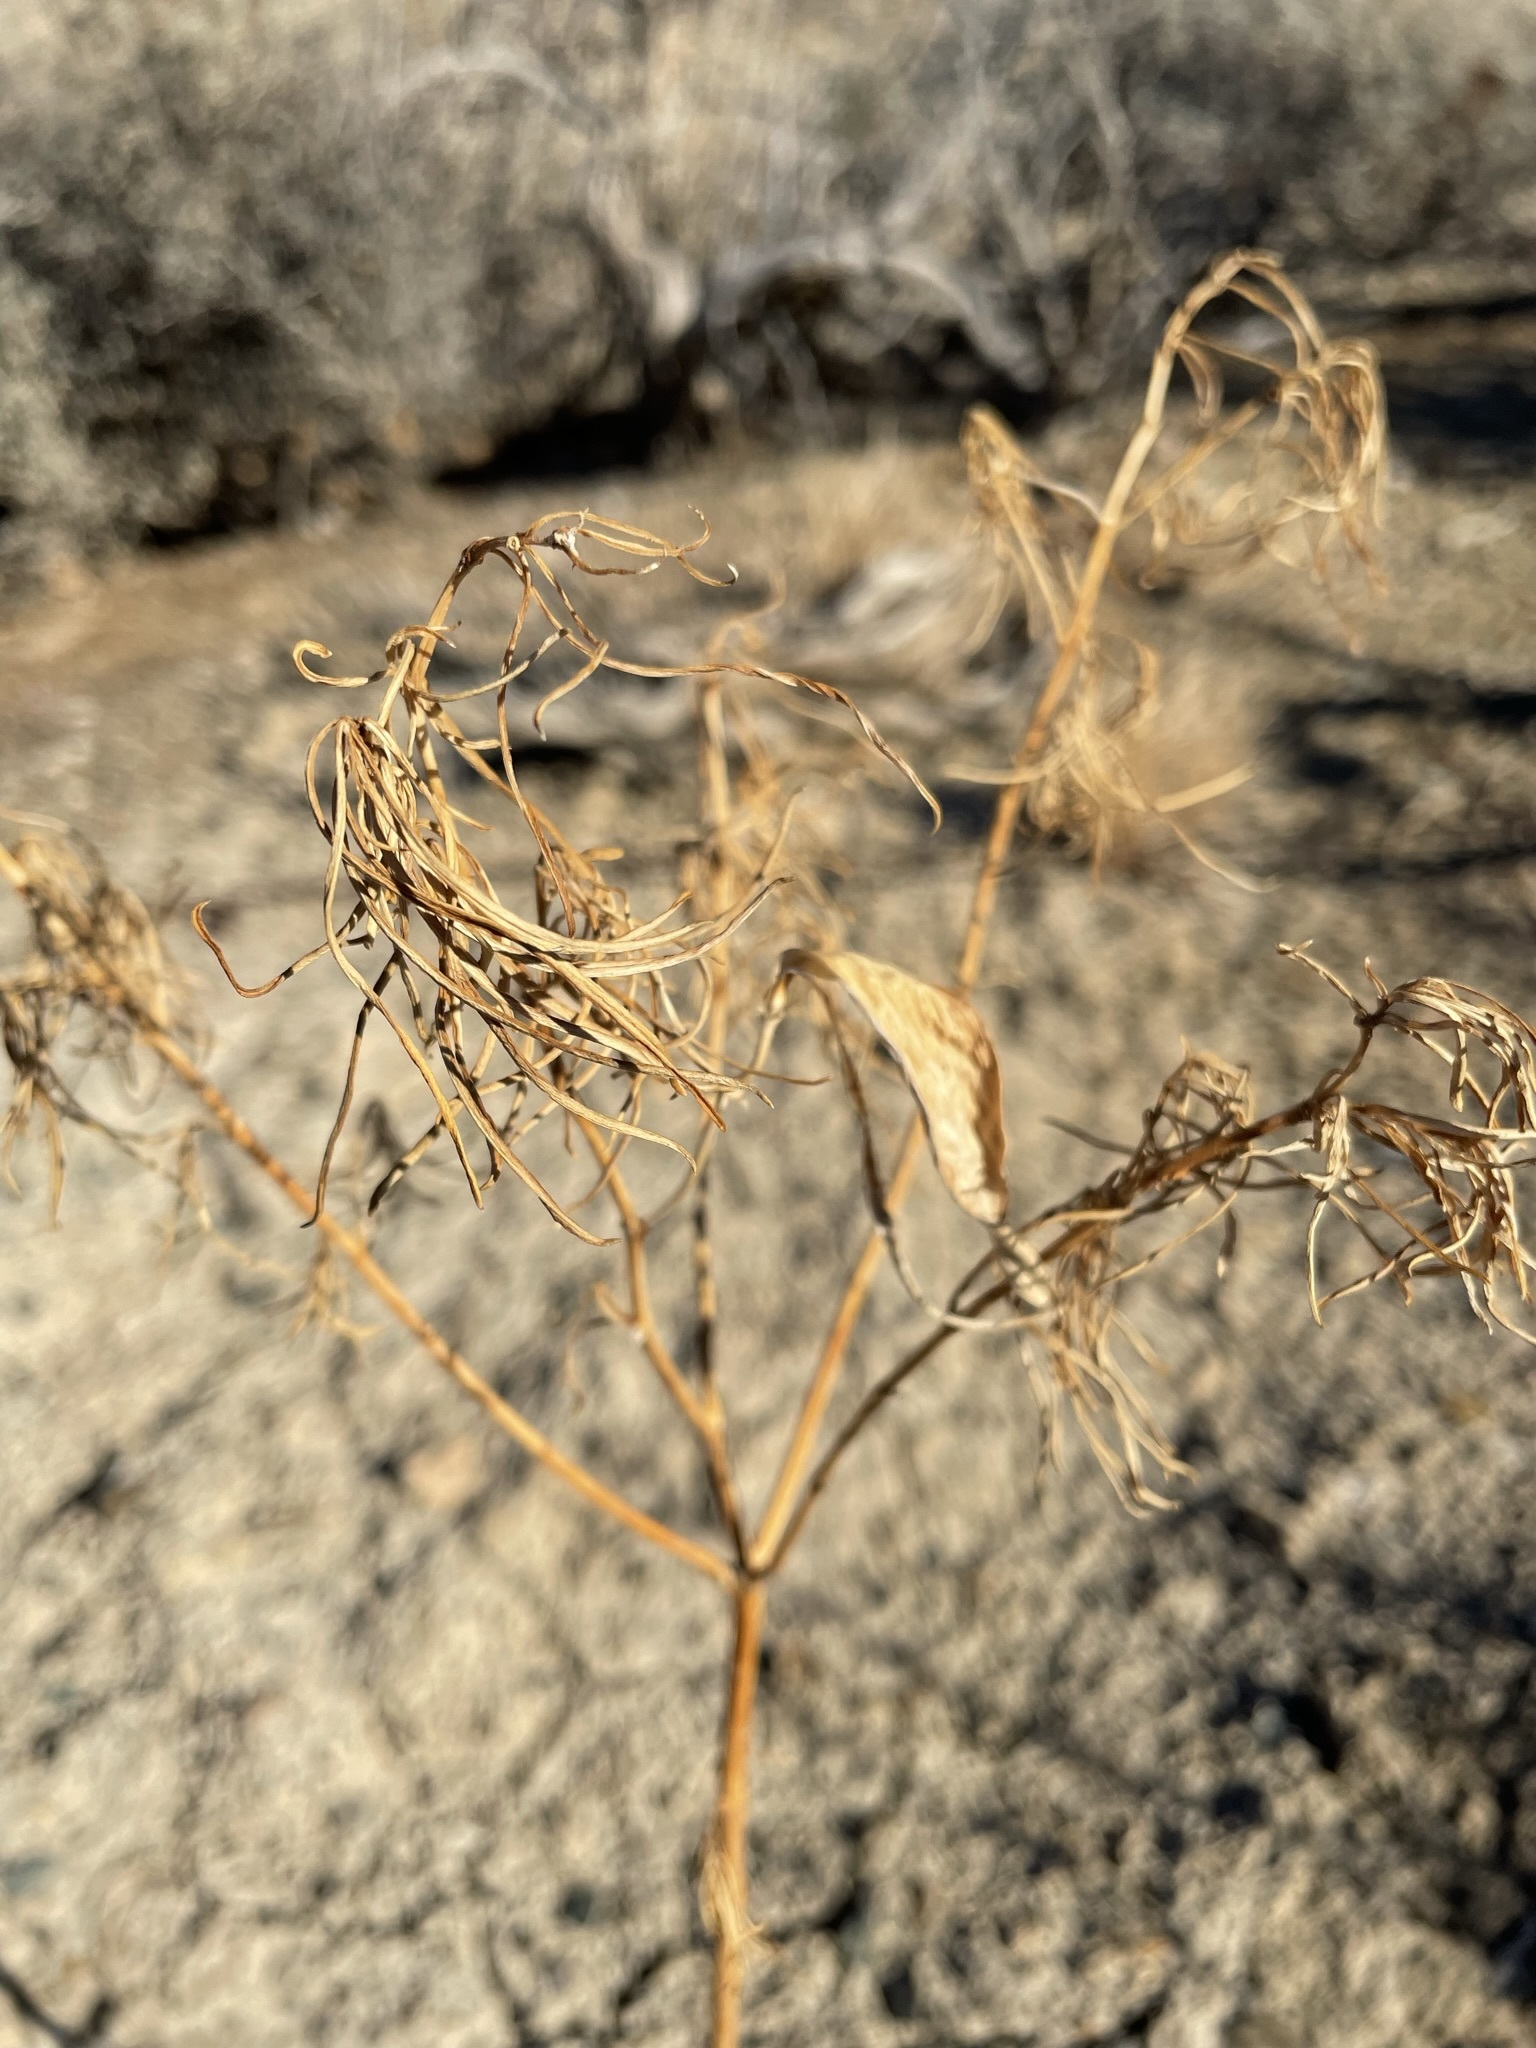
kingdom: Plantae
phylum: Tracheophyta
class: Magnoliopsida
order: Gentianales
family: Apocynaceae
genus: Asclepias
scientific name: Asclepias fascicularis
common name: Mexican milkweed
